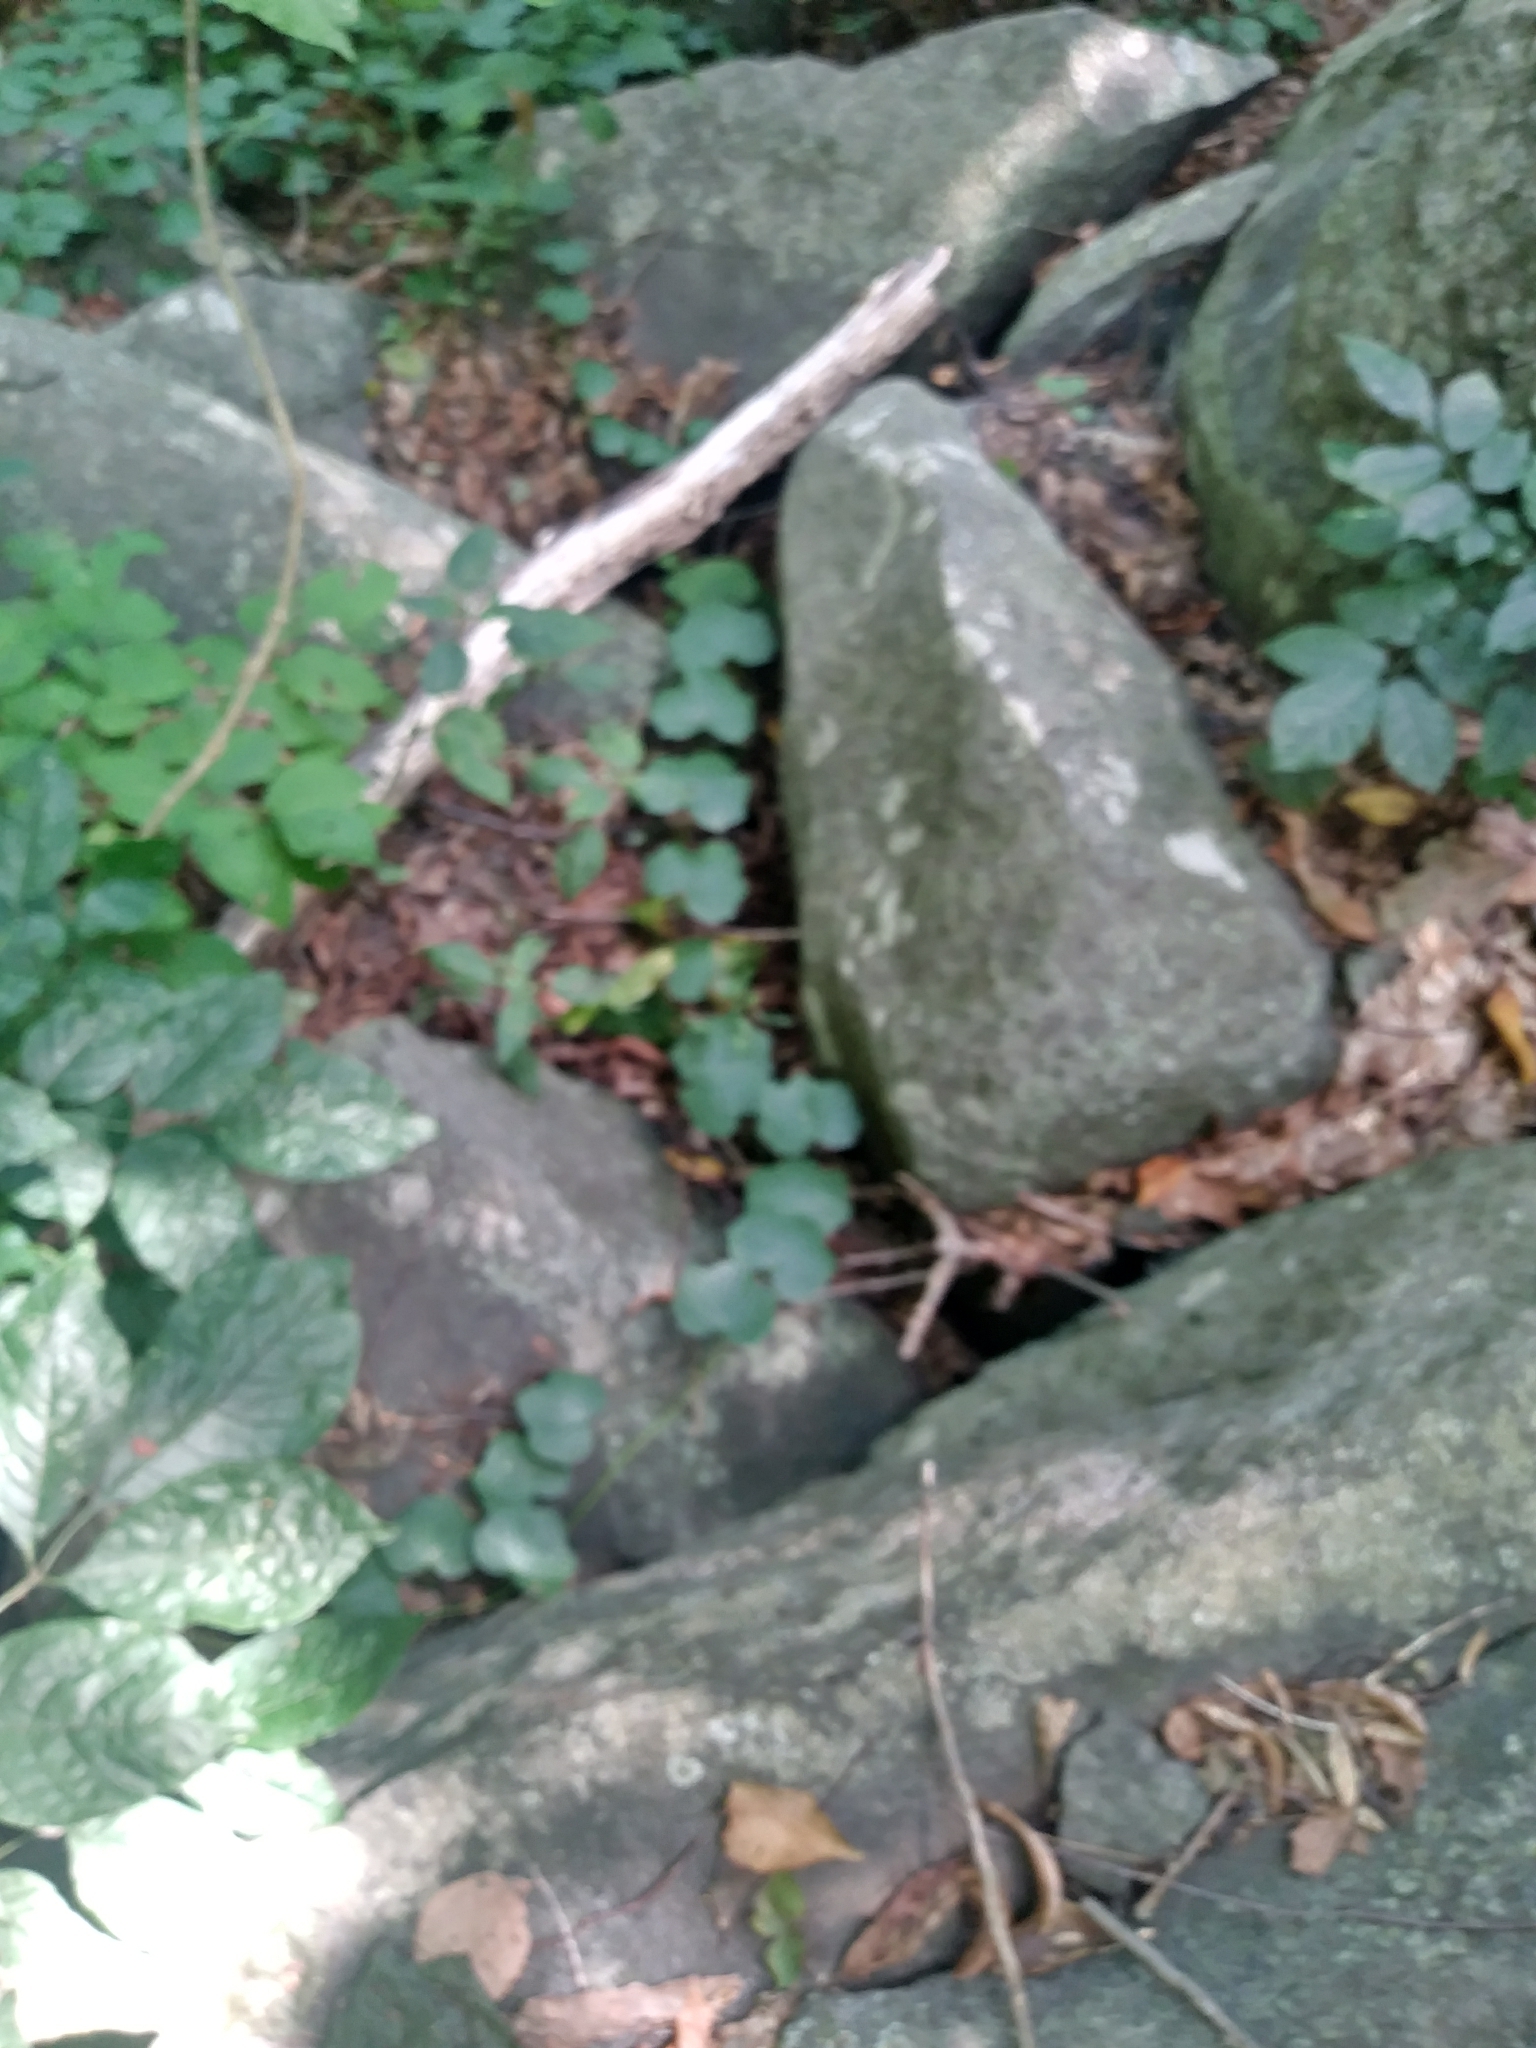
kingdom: Plantae
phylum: Tracheophyta
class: Magnoliopsida
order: Ranunculales
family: Menispermaceae
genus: Menispermum
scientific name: Menispermum canadense
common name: Moonseed
